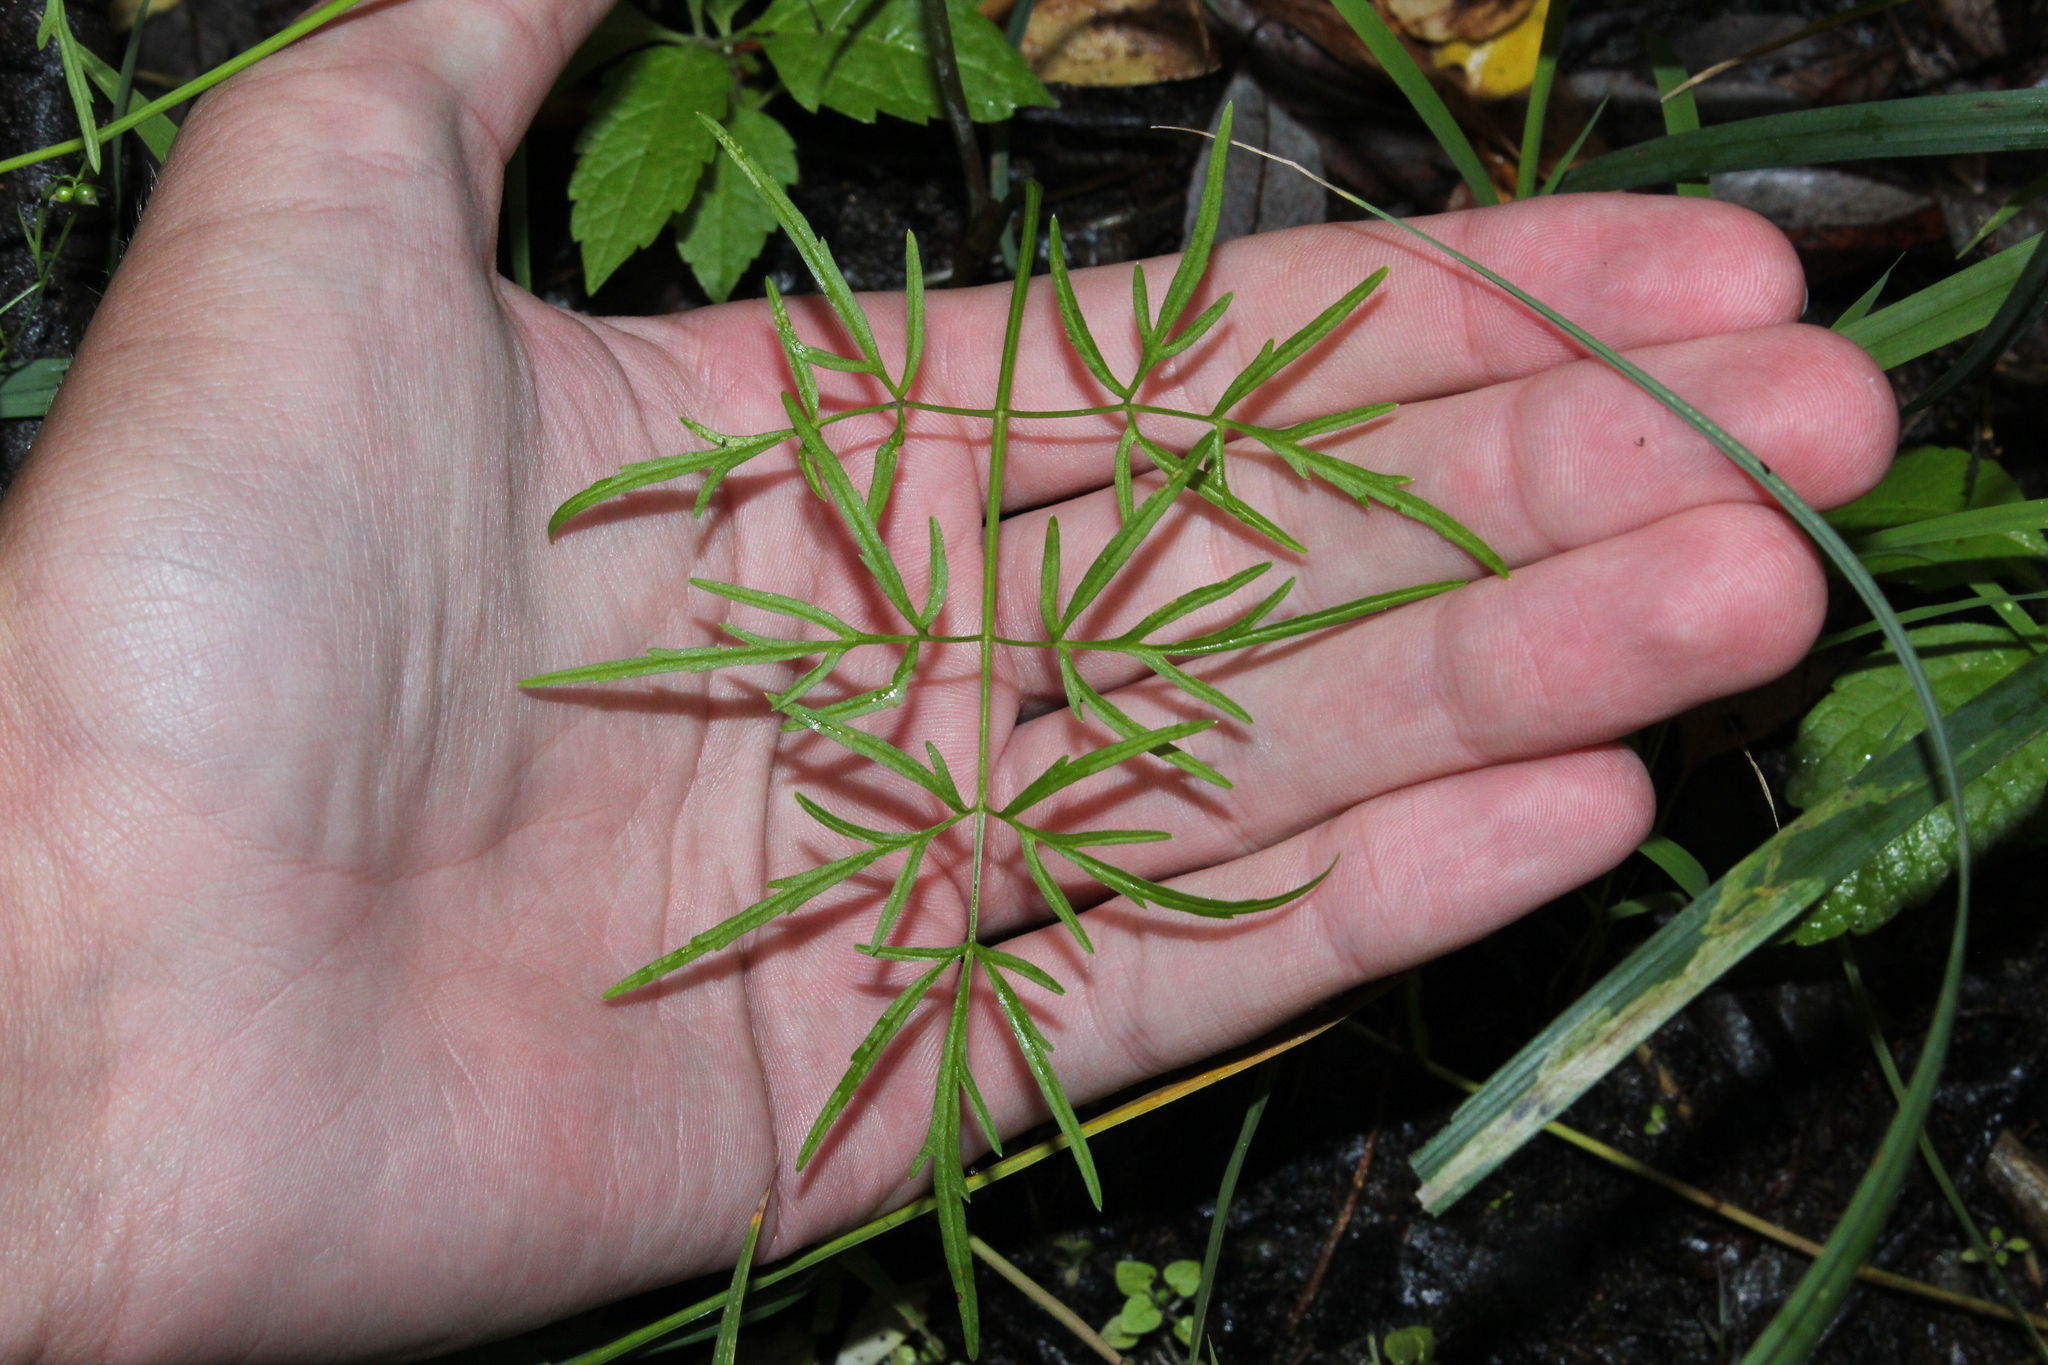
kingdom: Plantae
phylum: Tracheophyta
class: Magnoliopsida
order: Apiales
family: Apiaceae
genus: Cicuta
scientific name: Cicuta bulbifera
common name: Bulb-bearing water-hemlock
